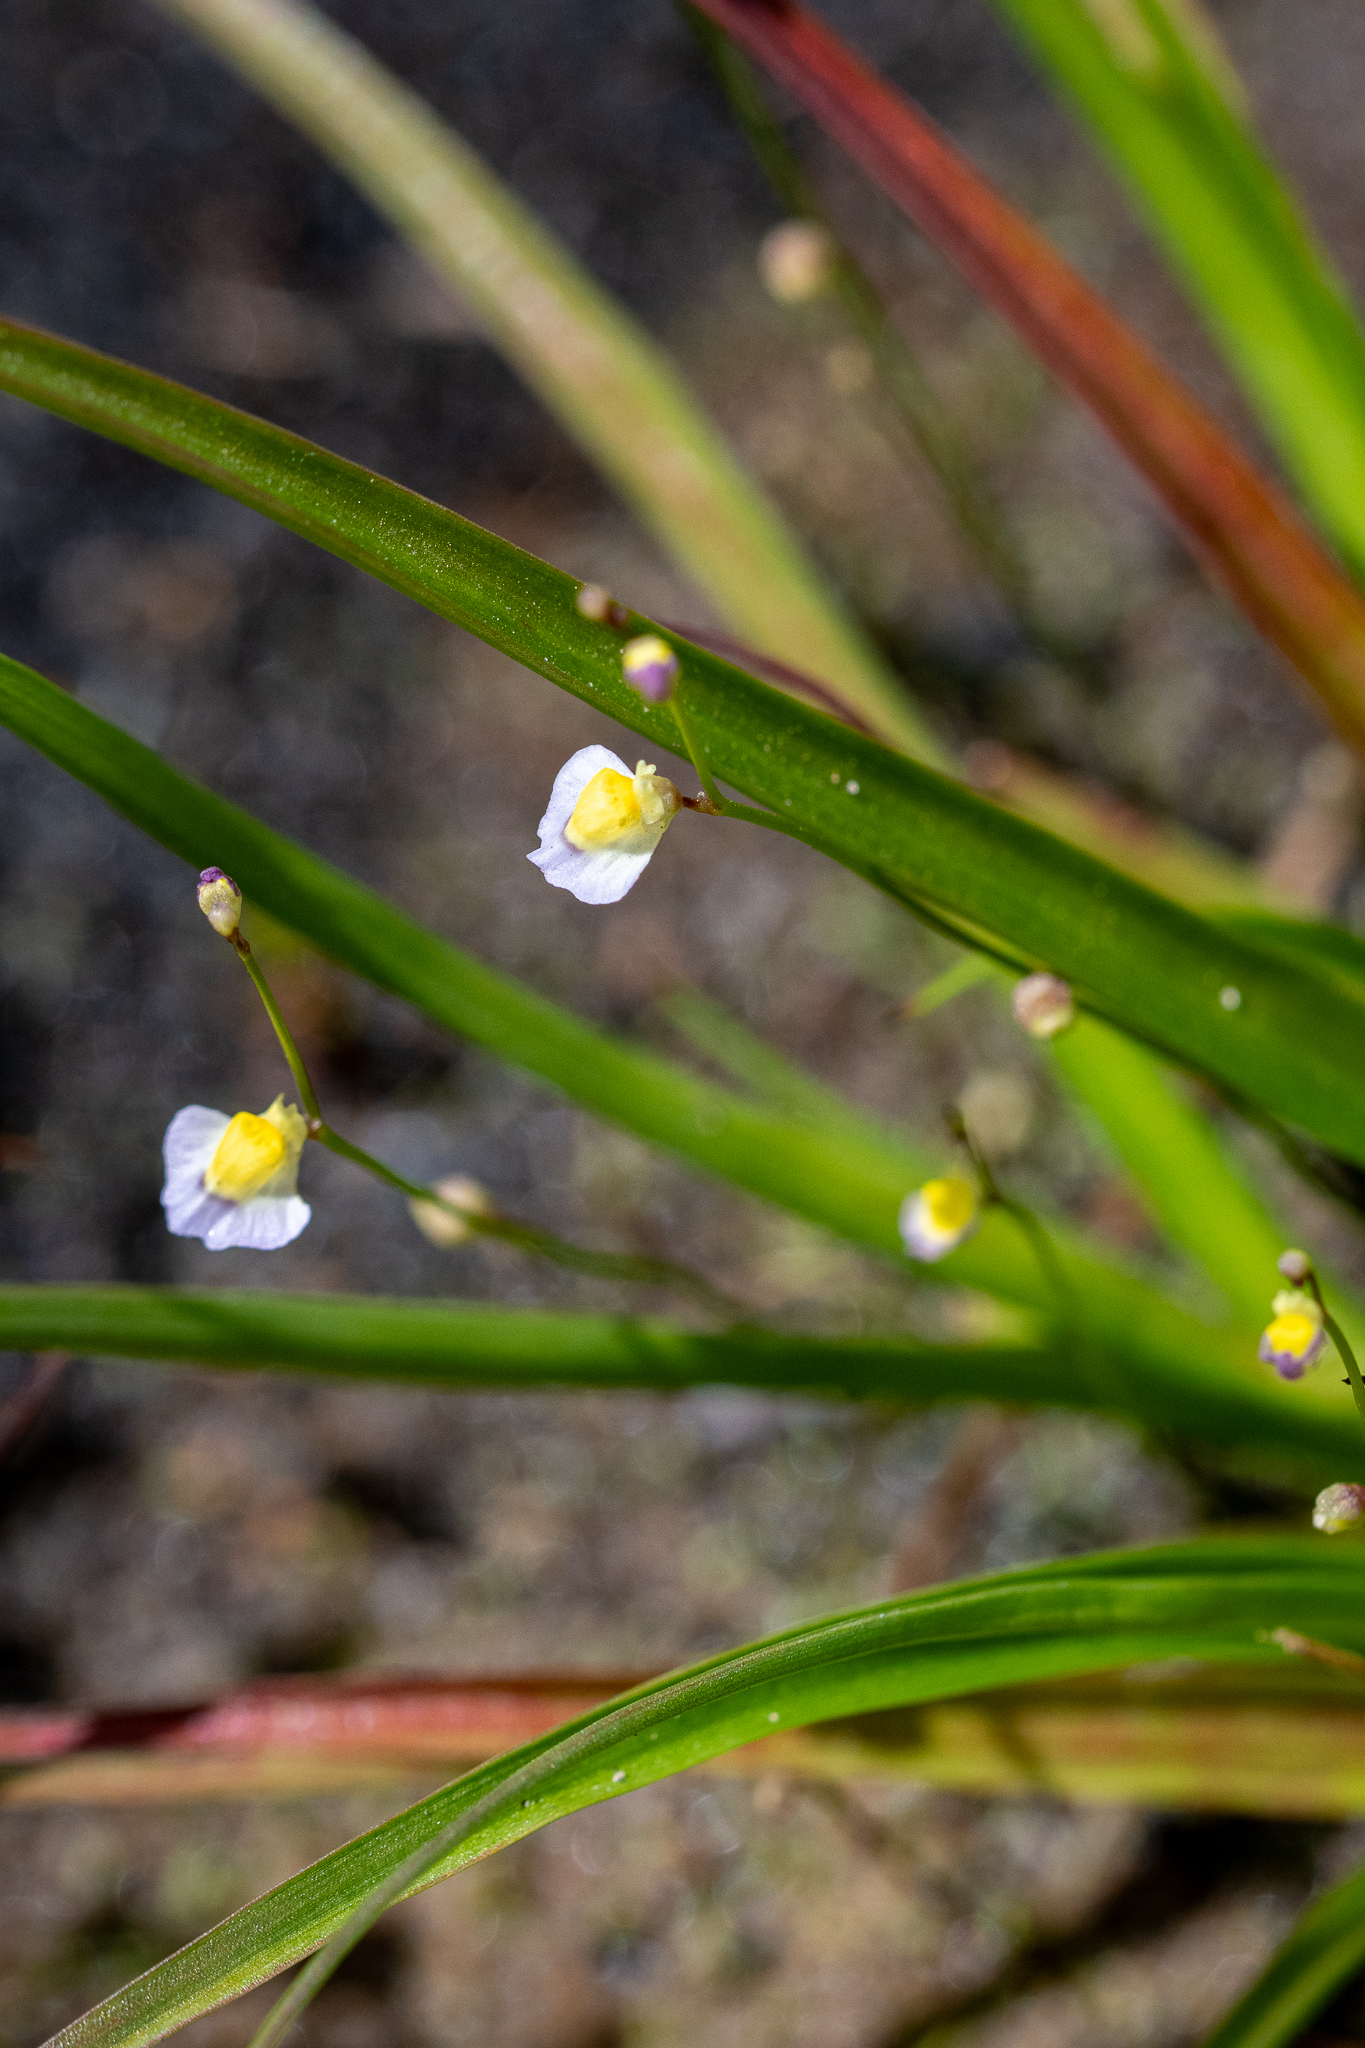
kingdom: Plantae
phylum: Tracheophyta
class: Magnoliopsida
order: Lamiales
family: Lentibulariaceae
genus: Utricularia
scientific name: Utricularia bisquamata
